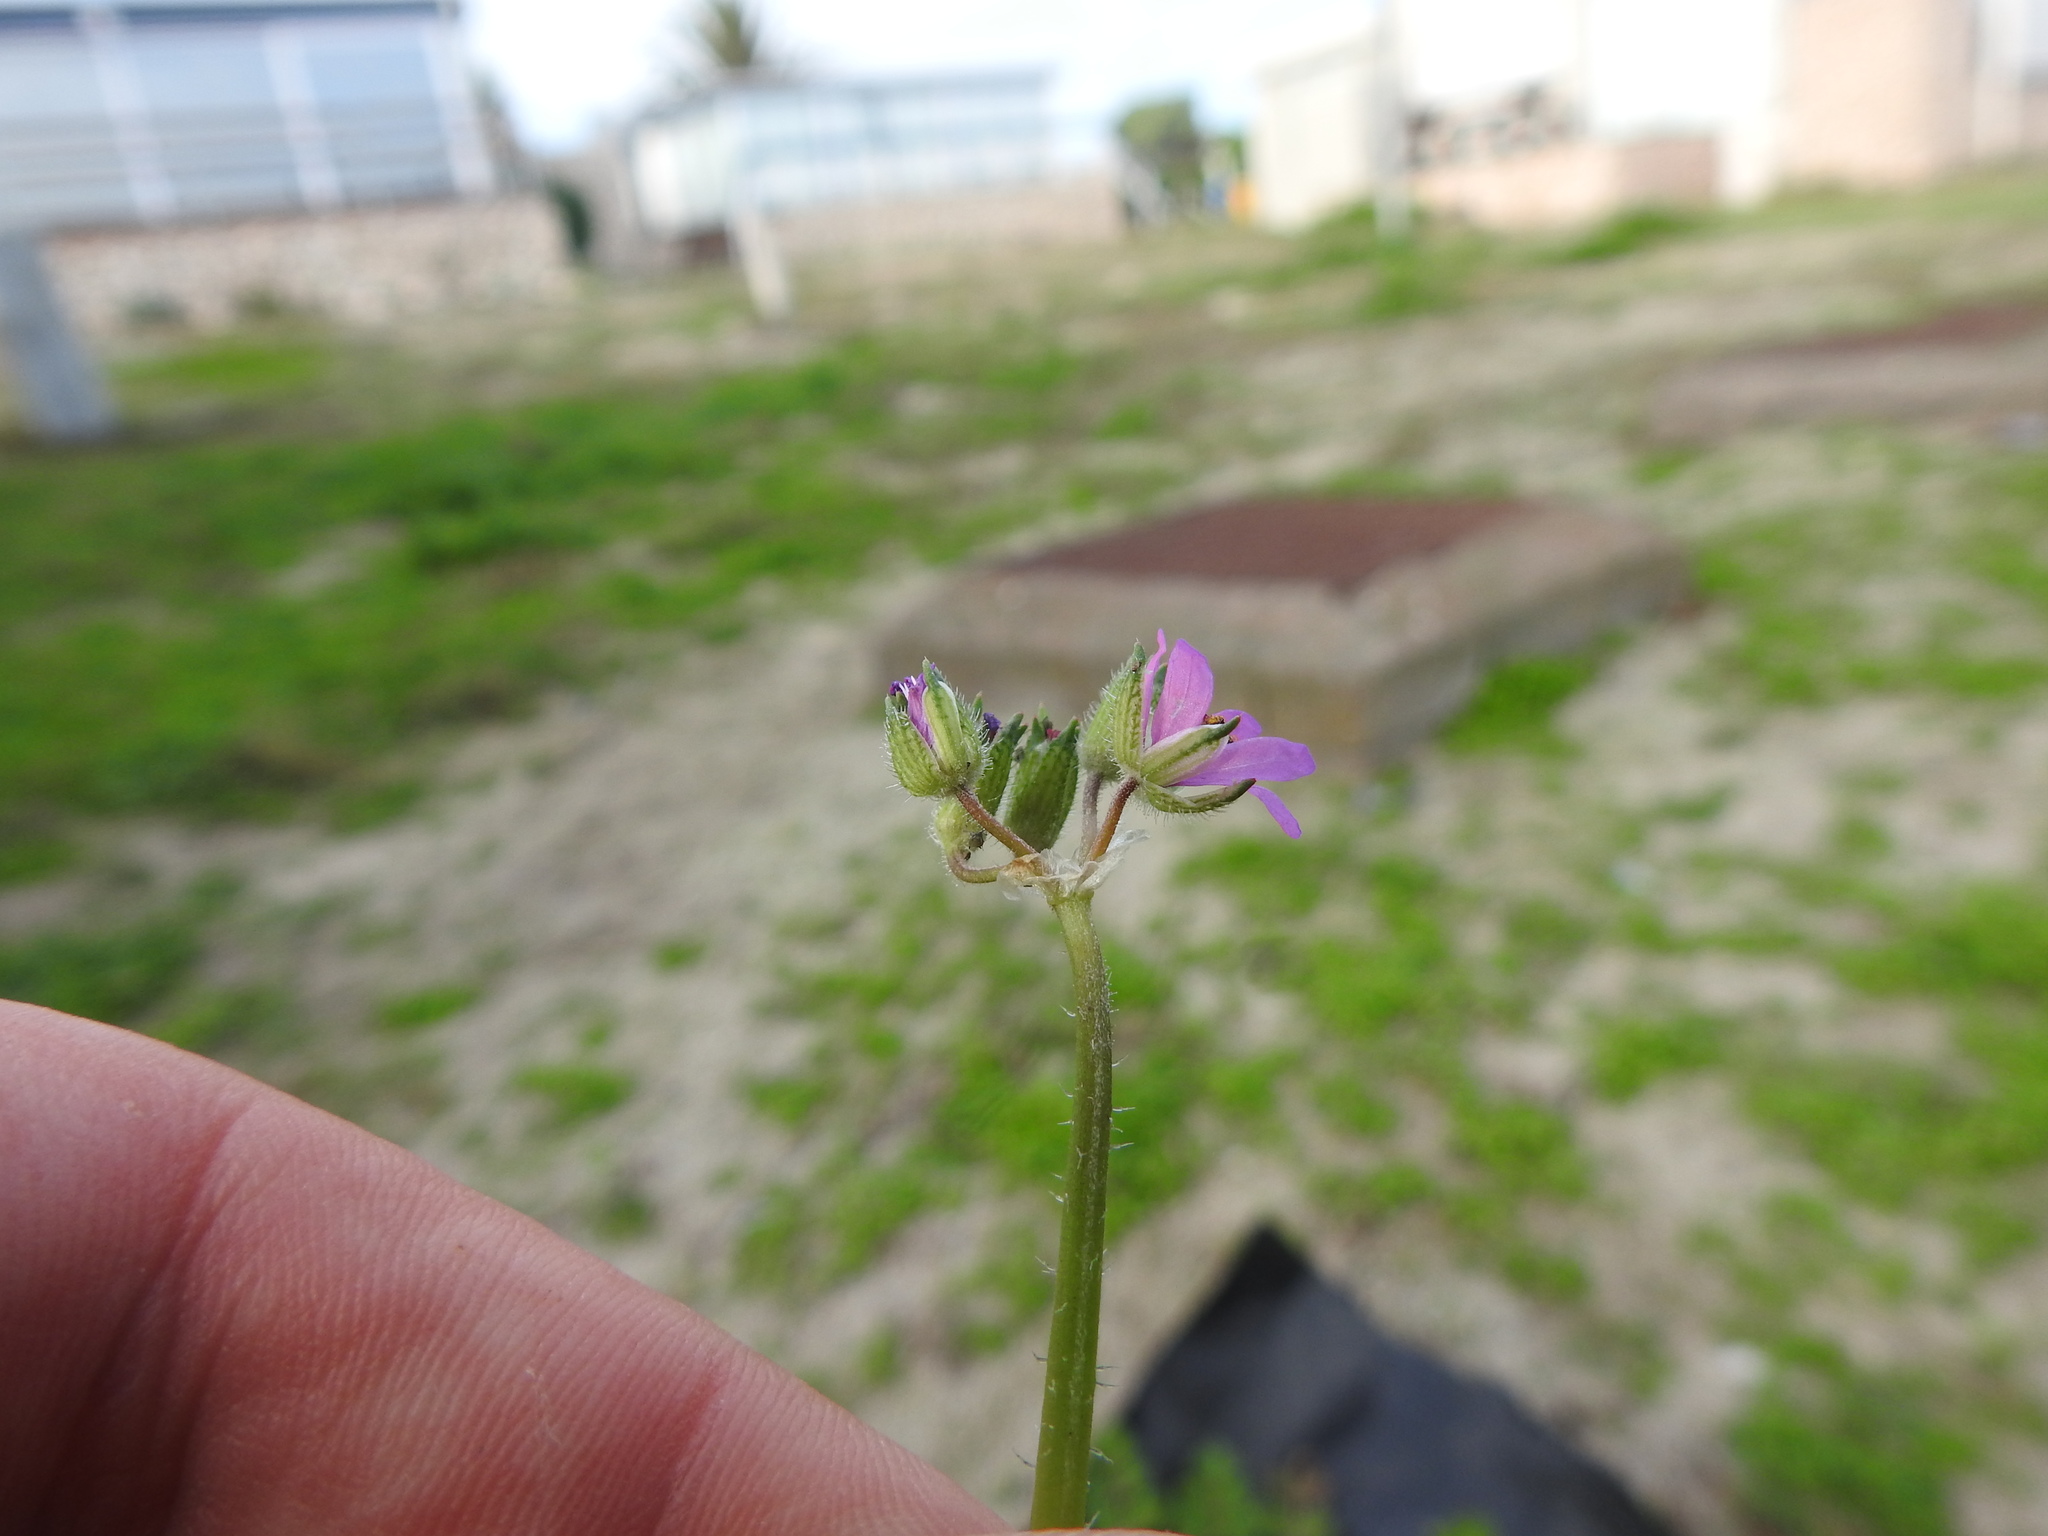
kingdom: Plantae
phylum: Tracheophyta
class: Magnoliopsida
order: Geraniales
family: Geraniaceae
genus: Erodium
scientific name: Erodium moschatum
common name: Musk stork's-bill
